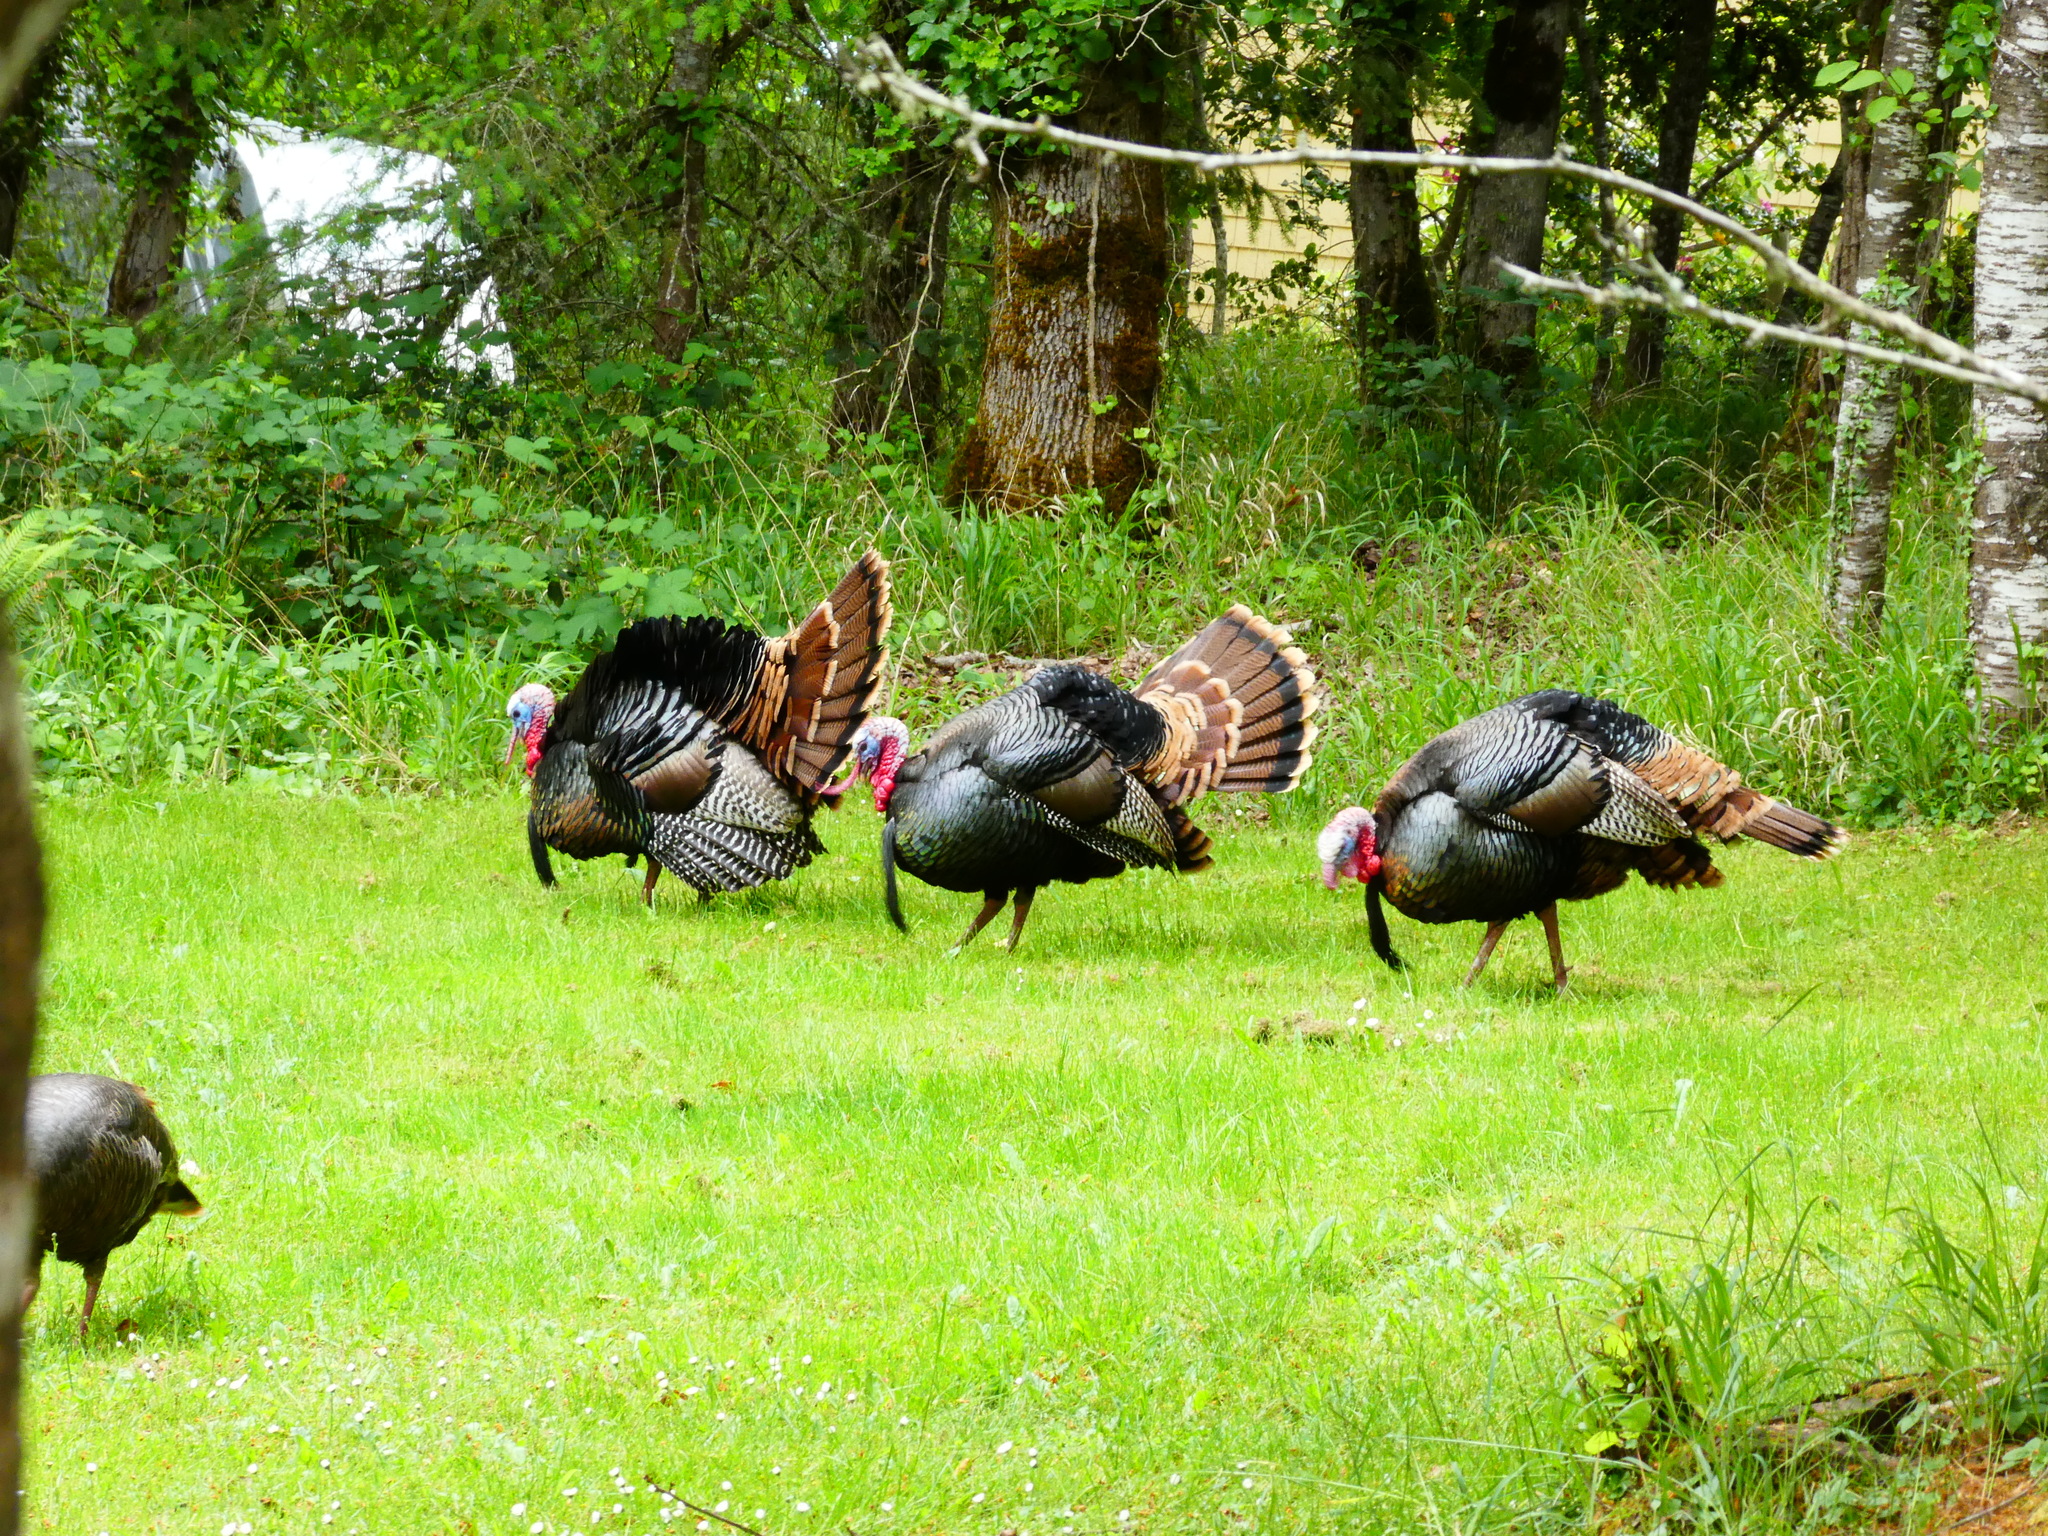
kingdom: Animalia
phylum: Chordata
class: Aves
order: Galliformes
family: Phasianidae
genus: Meleagris
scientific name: Meleagris gallopavo
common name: Wild turkey
